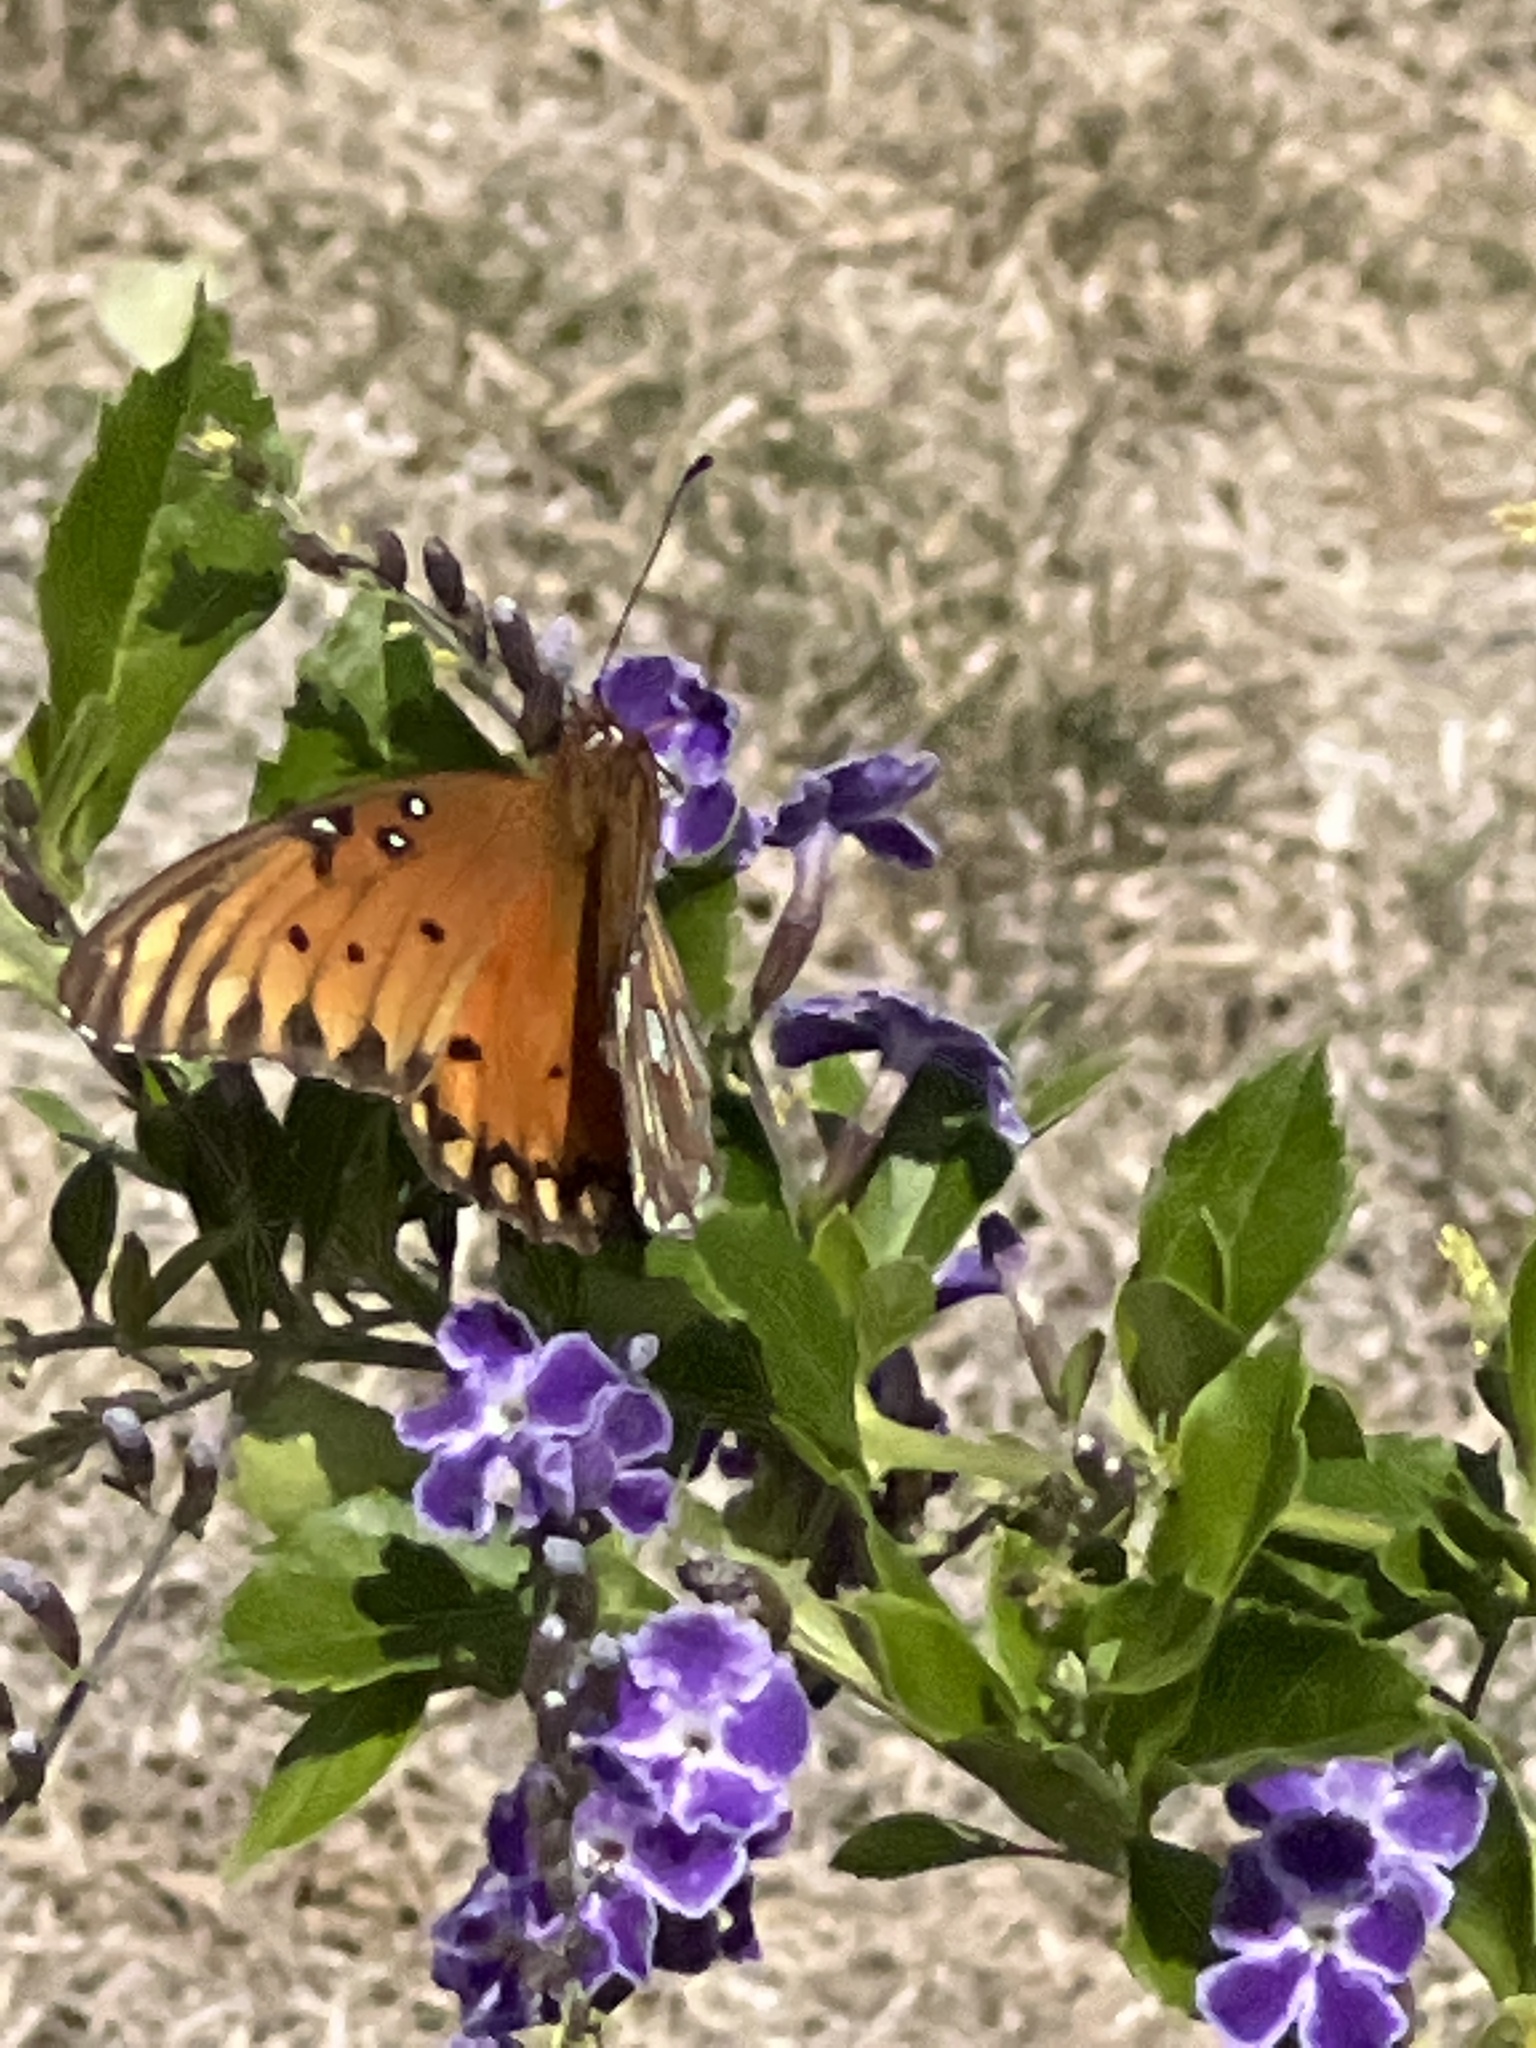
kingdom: Animalia
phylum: Arthropoda
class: Insecta
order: Lepidoptera
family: Nymphalidae
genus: Dione
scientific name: Dione vanillae
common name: Gulf fritillary
